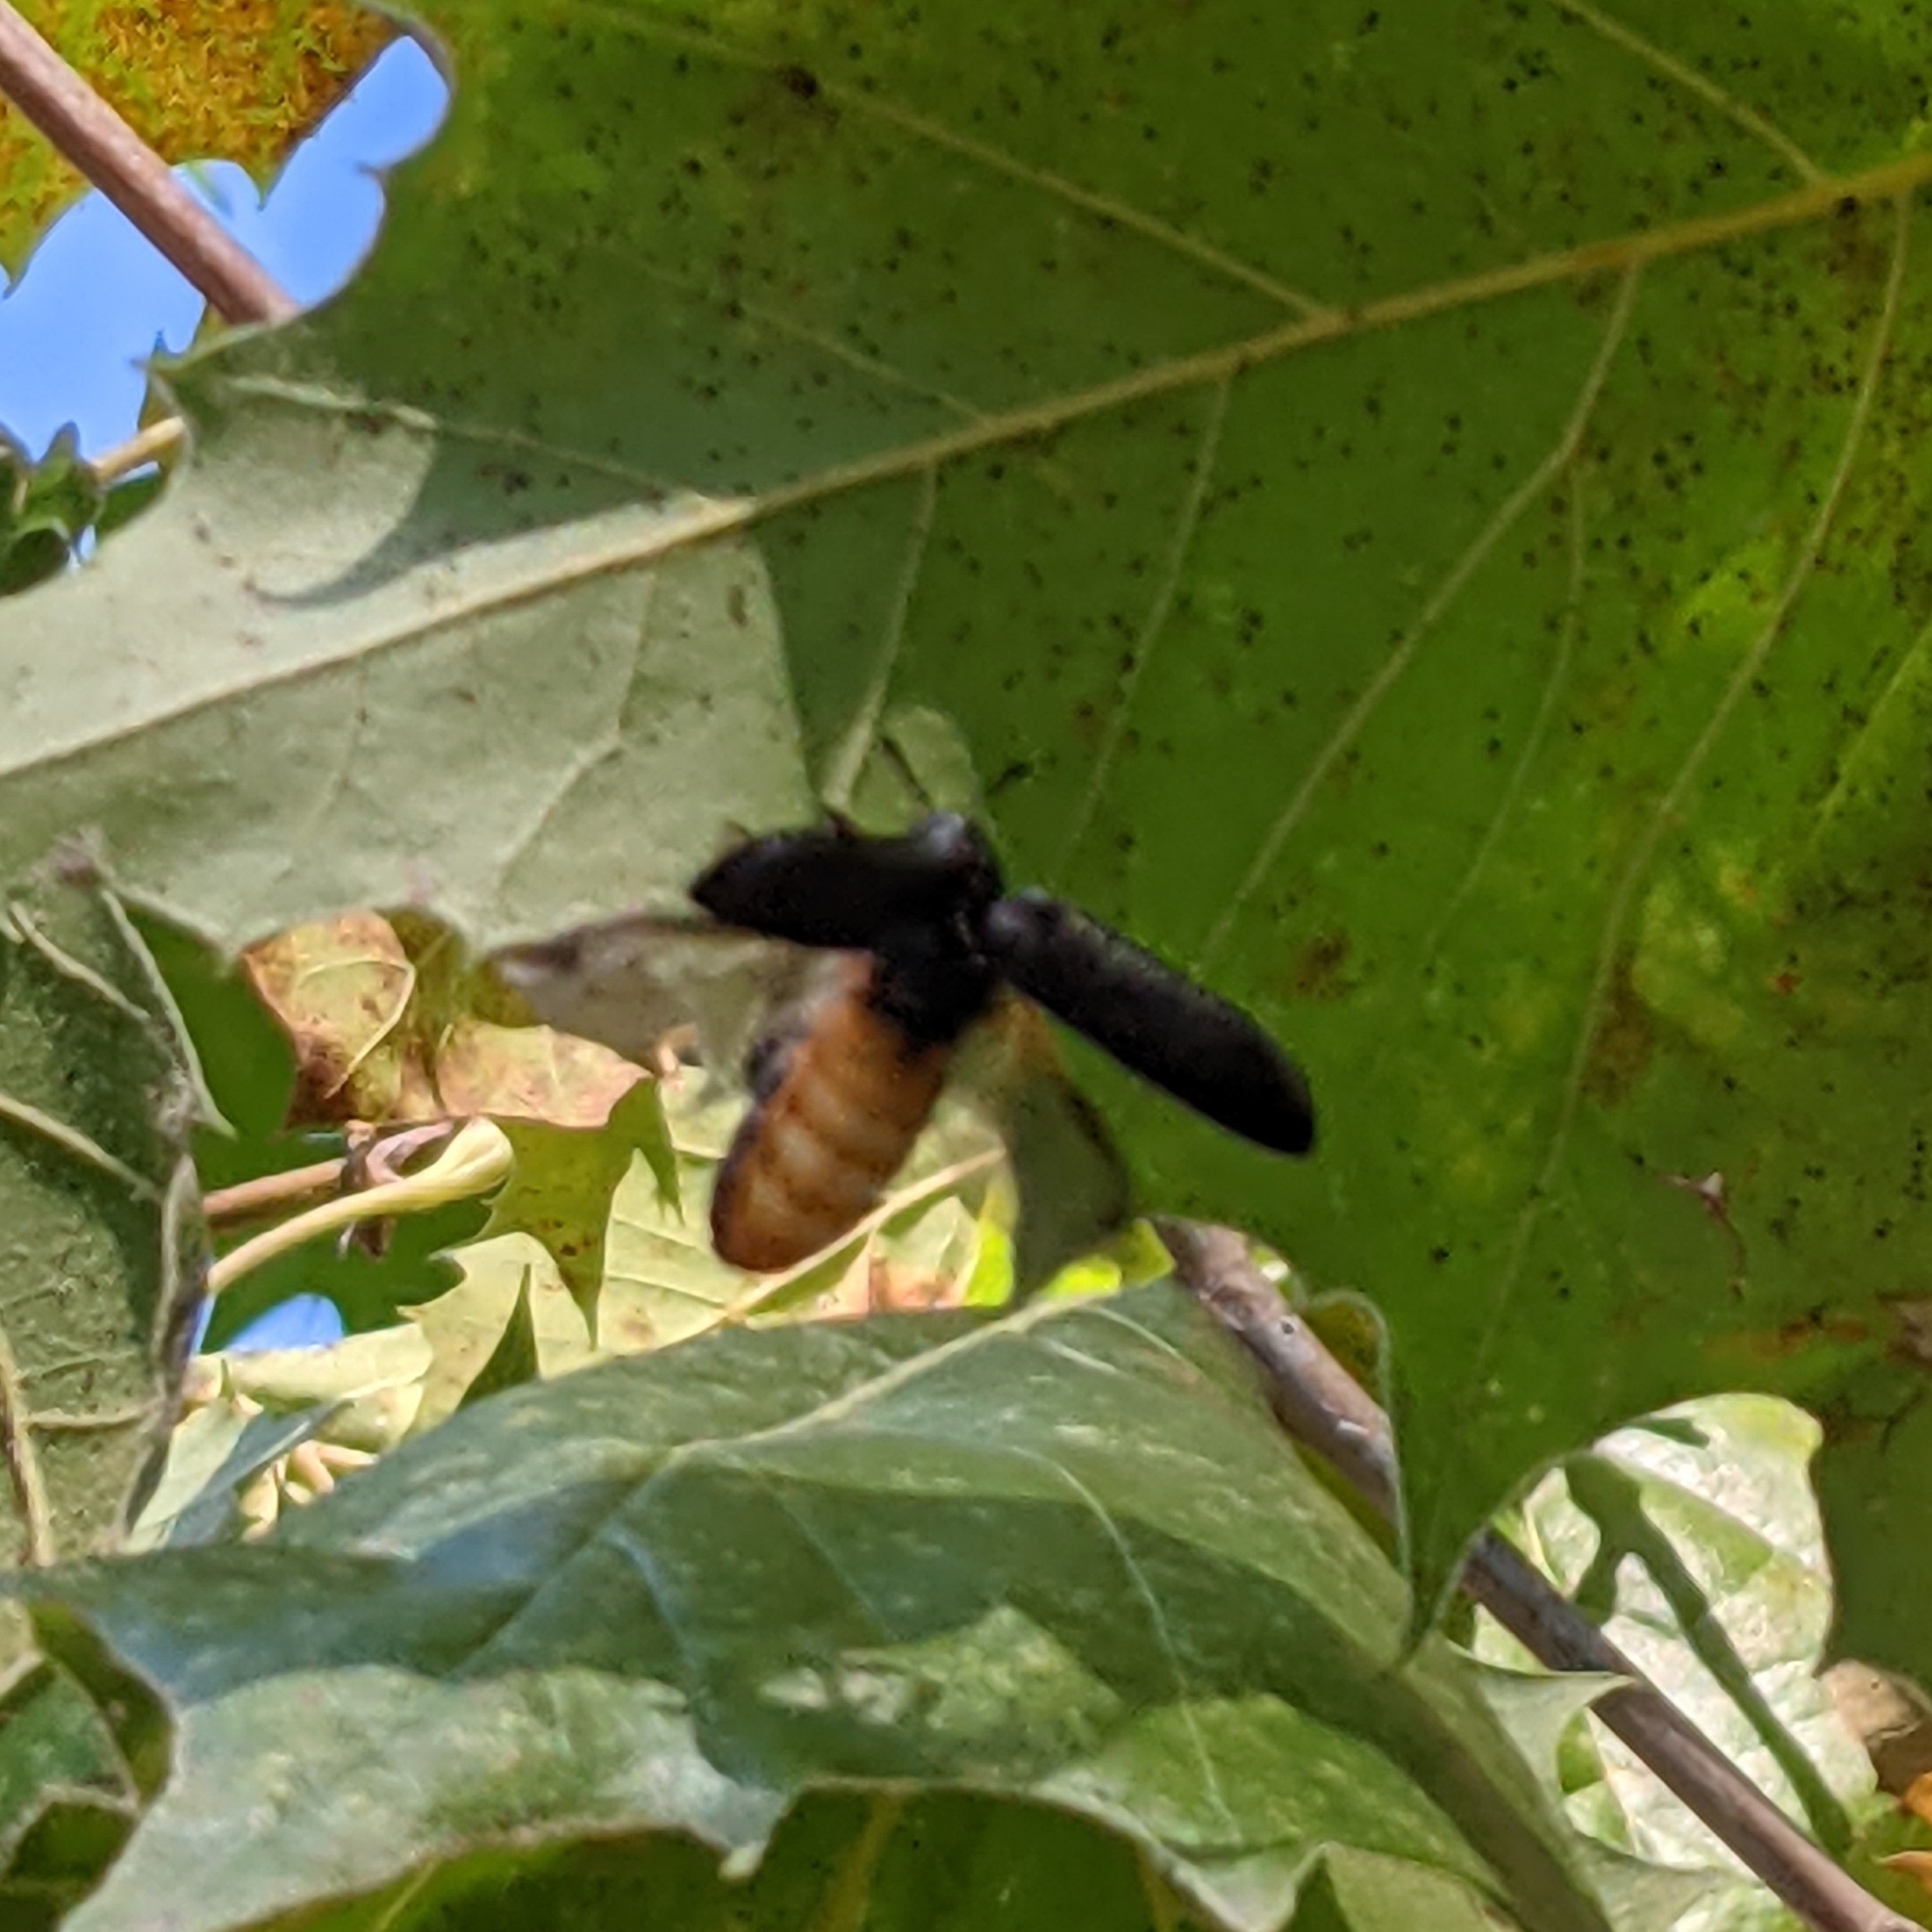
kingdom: Animalia
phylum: Arthropoda
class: Insecta
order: Coleoptera
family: Rhipiceridae
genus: Sandalus
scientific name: Sandalus niger
